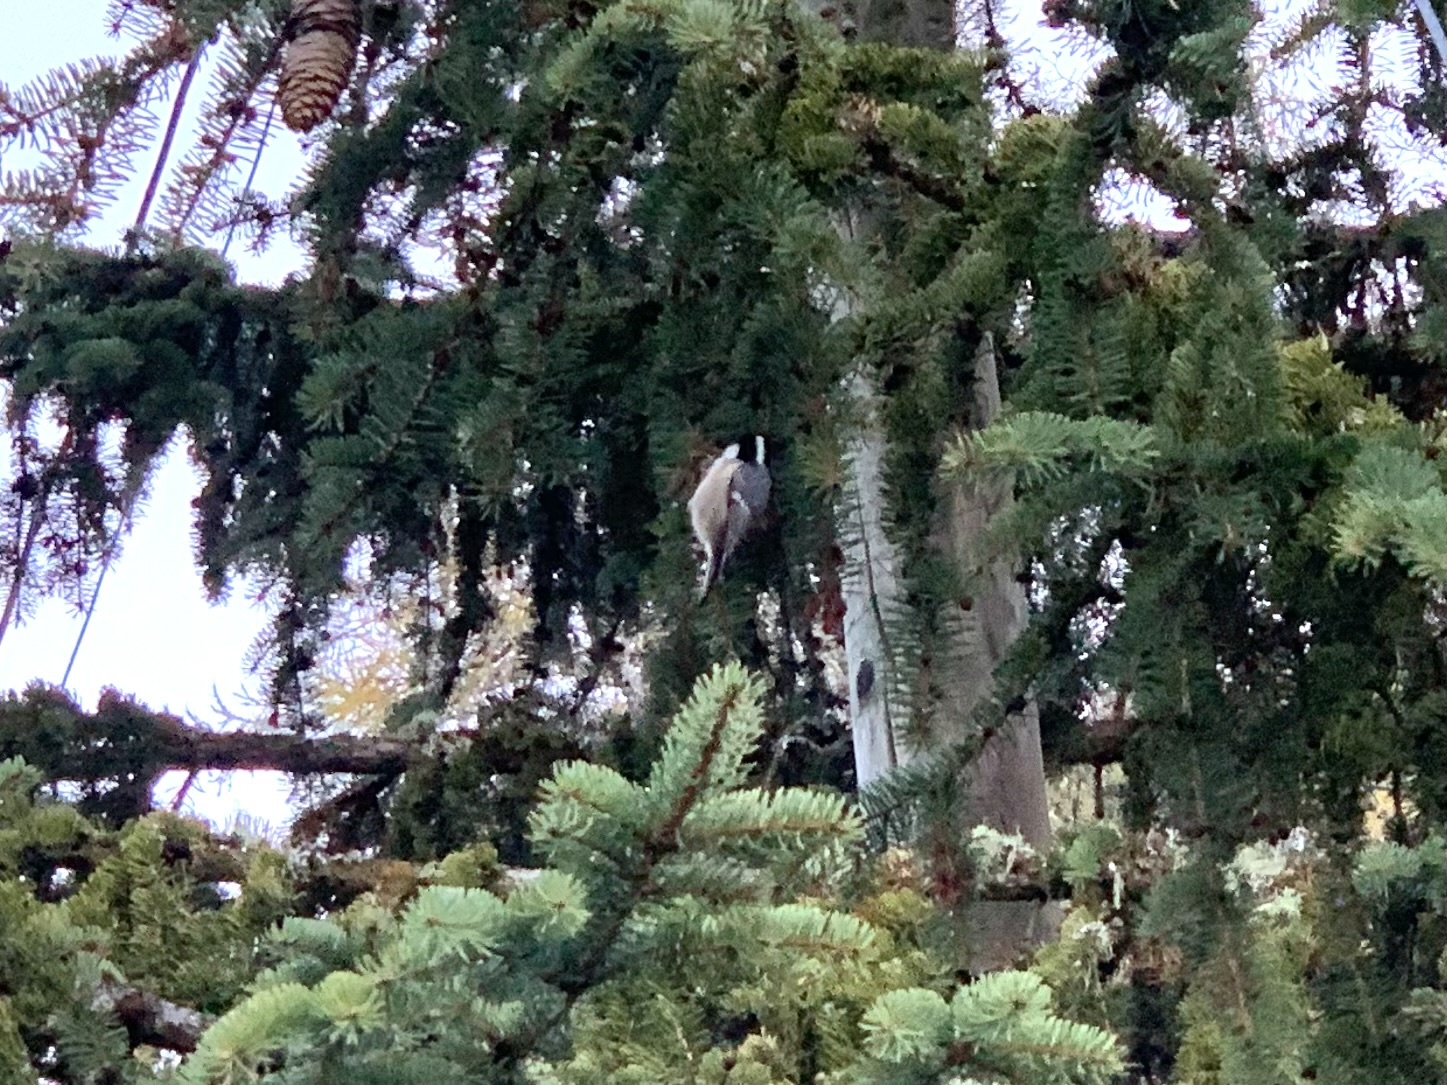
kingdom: Animalia
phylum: Chordata
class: Aves
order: Passeriformes
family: Paridae
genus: Periparus
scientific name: Periparus ater
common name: Coal tit
